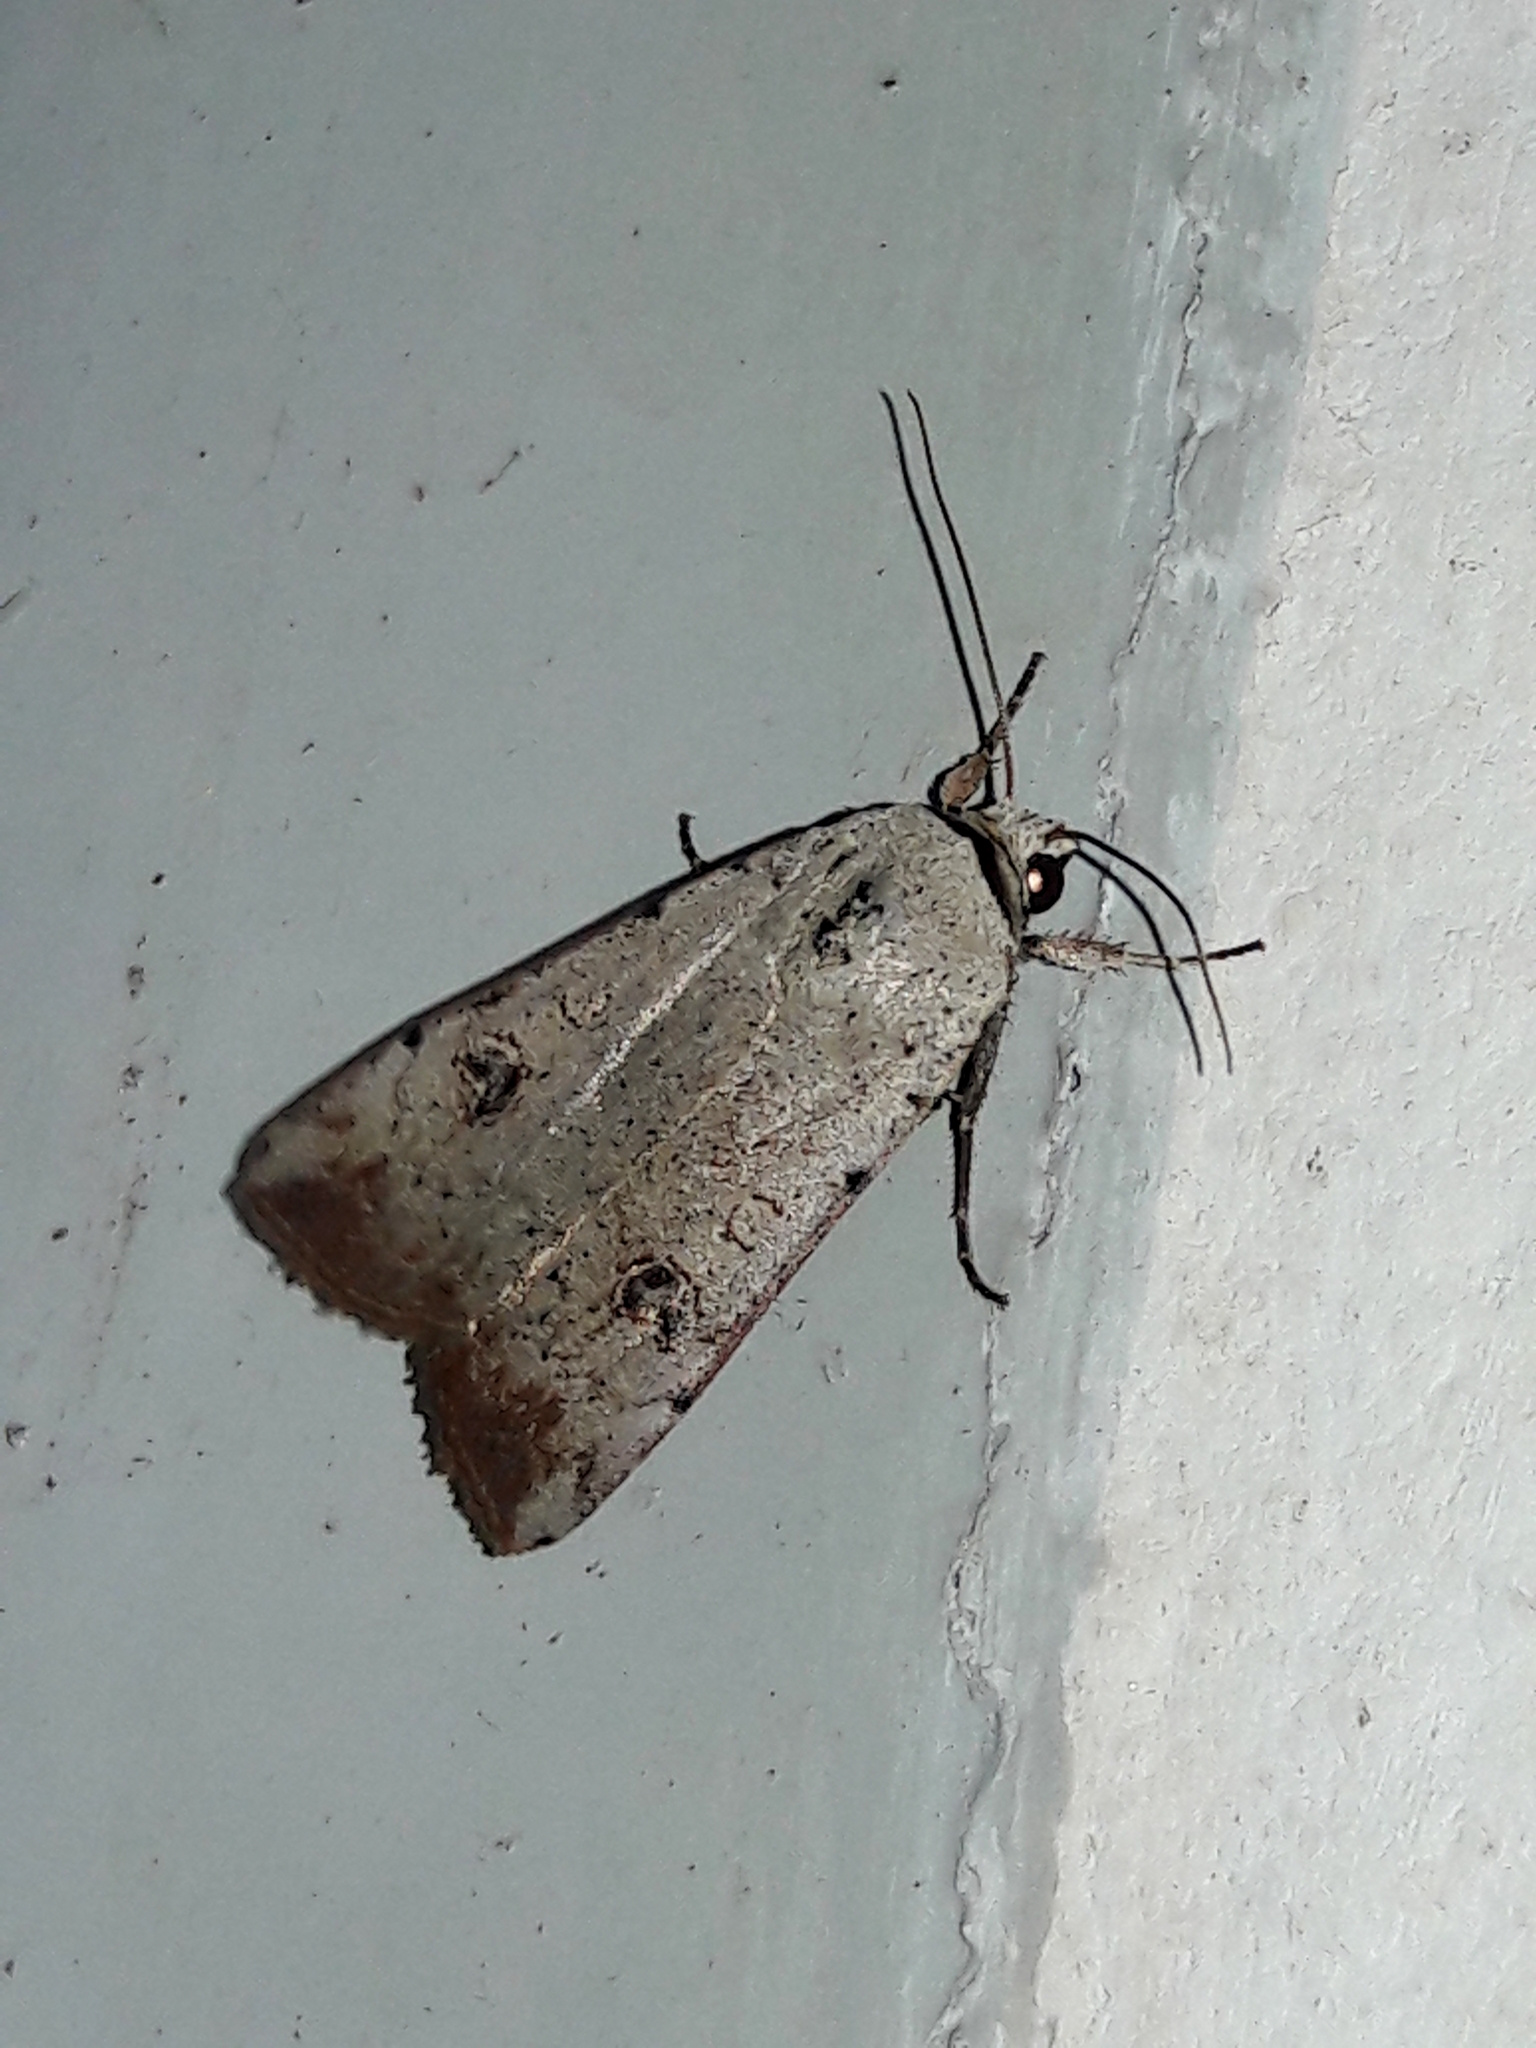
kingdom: Animalia
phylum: Arthropoda
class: Insecta
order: Lepidoptera
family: Noctuidae
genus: Anicla
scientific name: Anicla infecta
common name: Green cutworm
